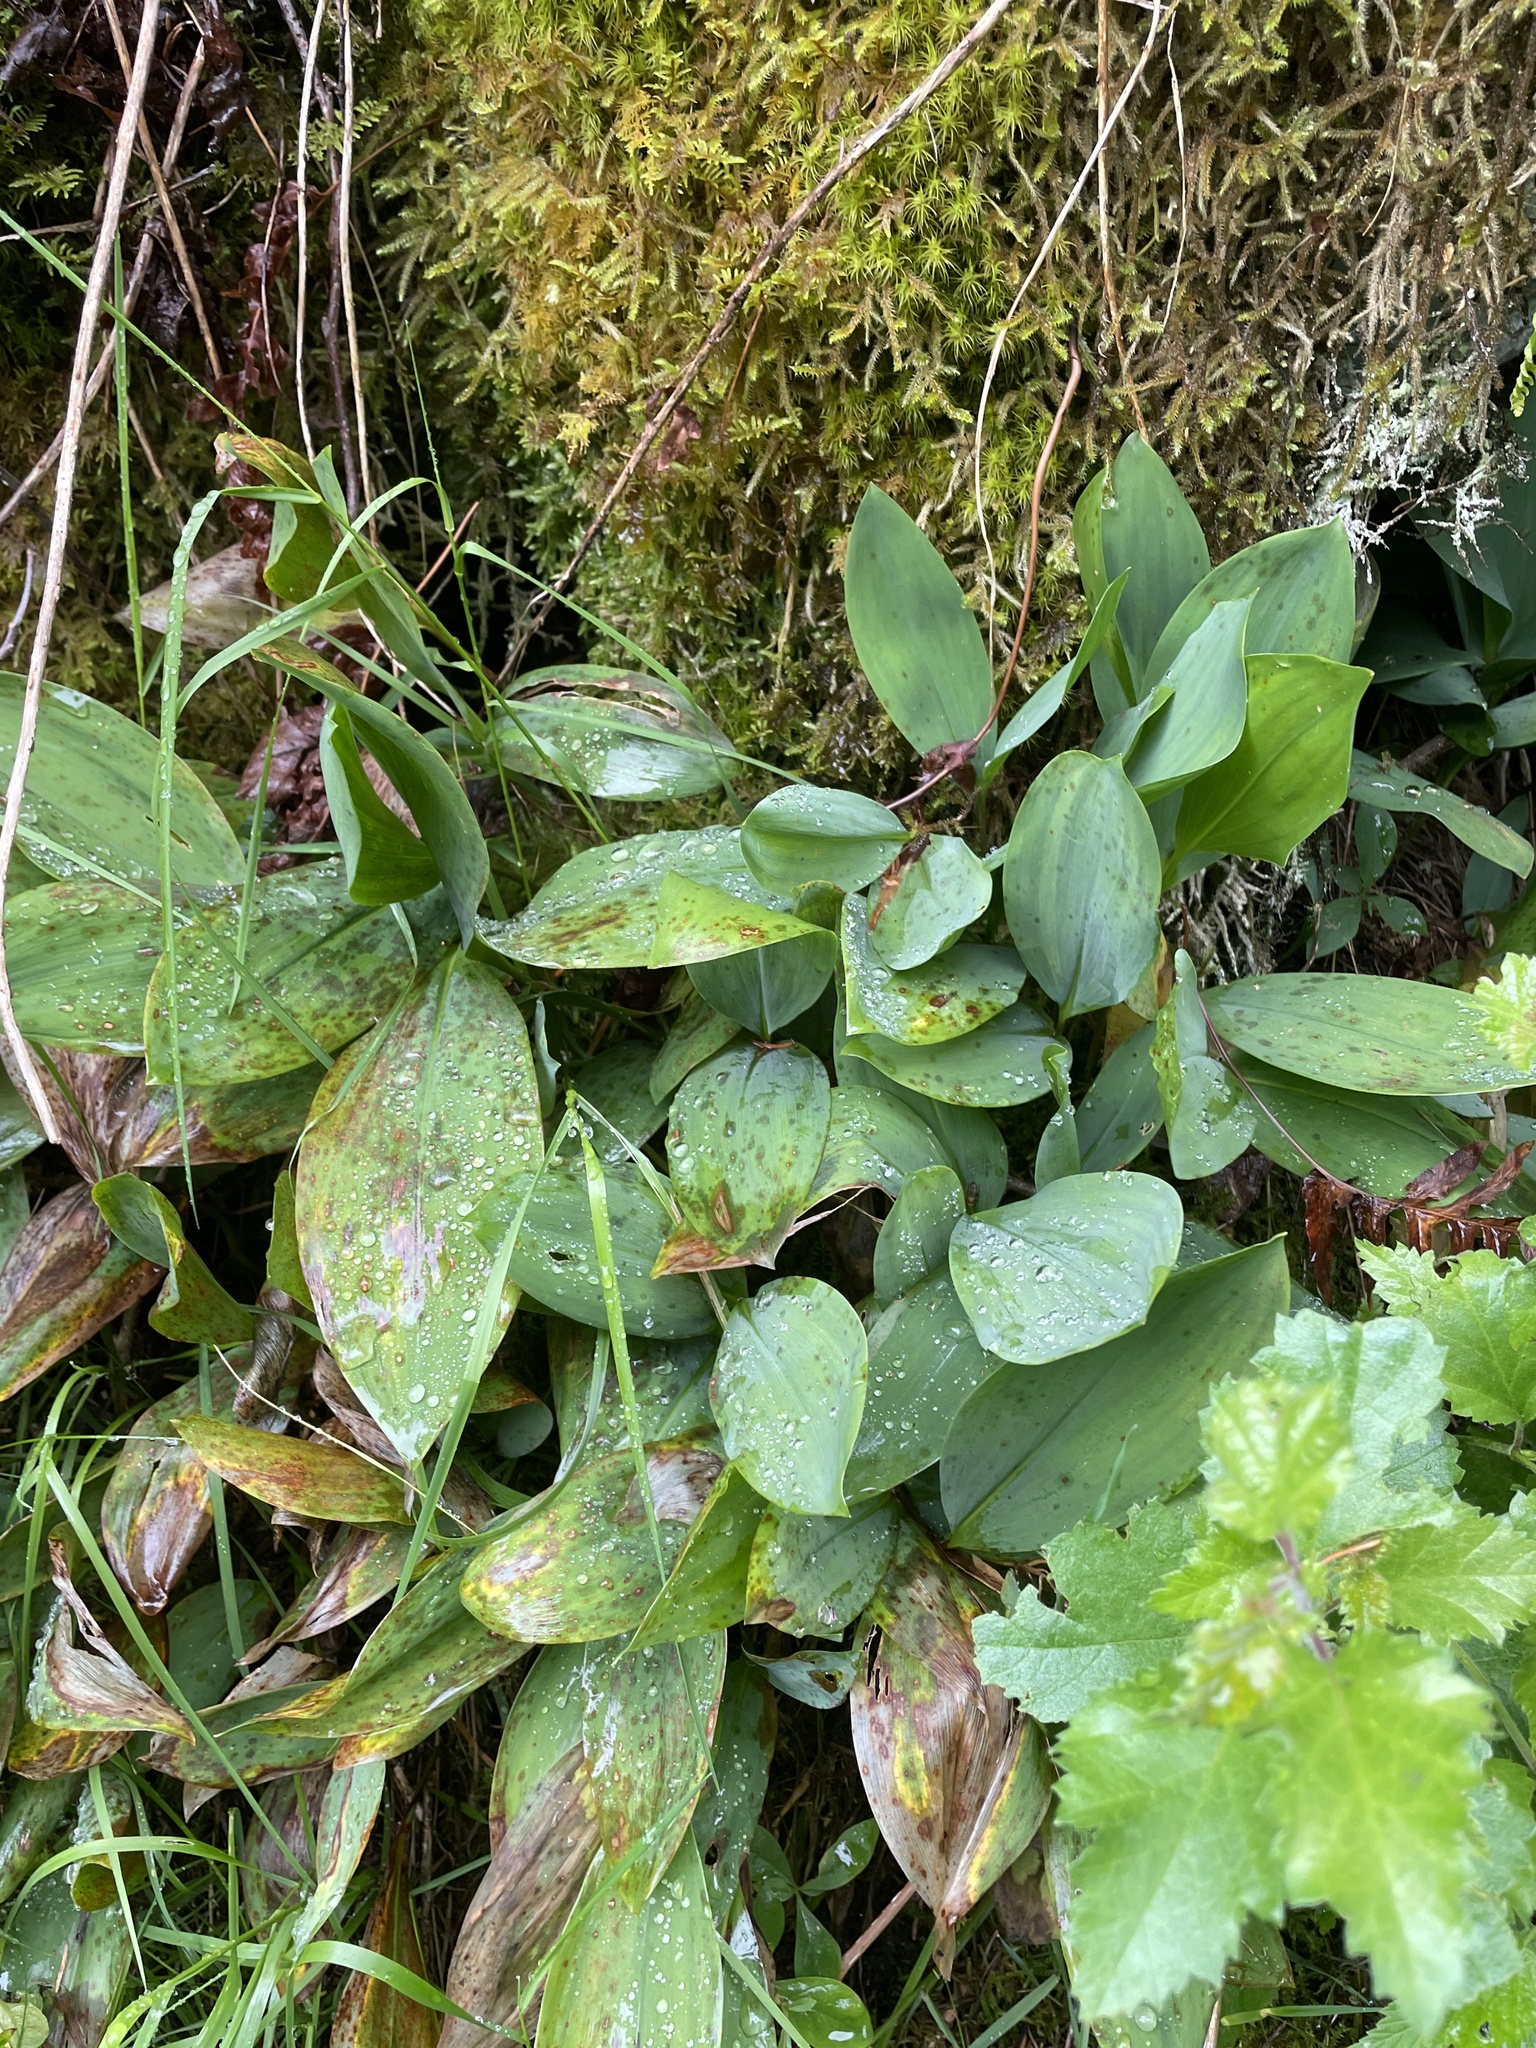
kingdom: Plantae
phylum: Tracheophyta
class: Liliopsida
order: Asparagales
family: Asparagaceae
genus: Convallaria
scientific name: Convallaria majalis
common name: Lily-of-the-valley
